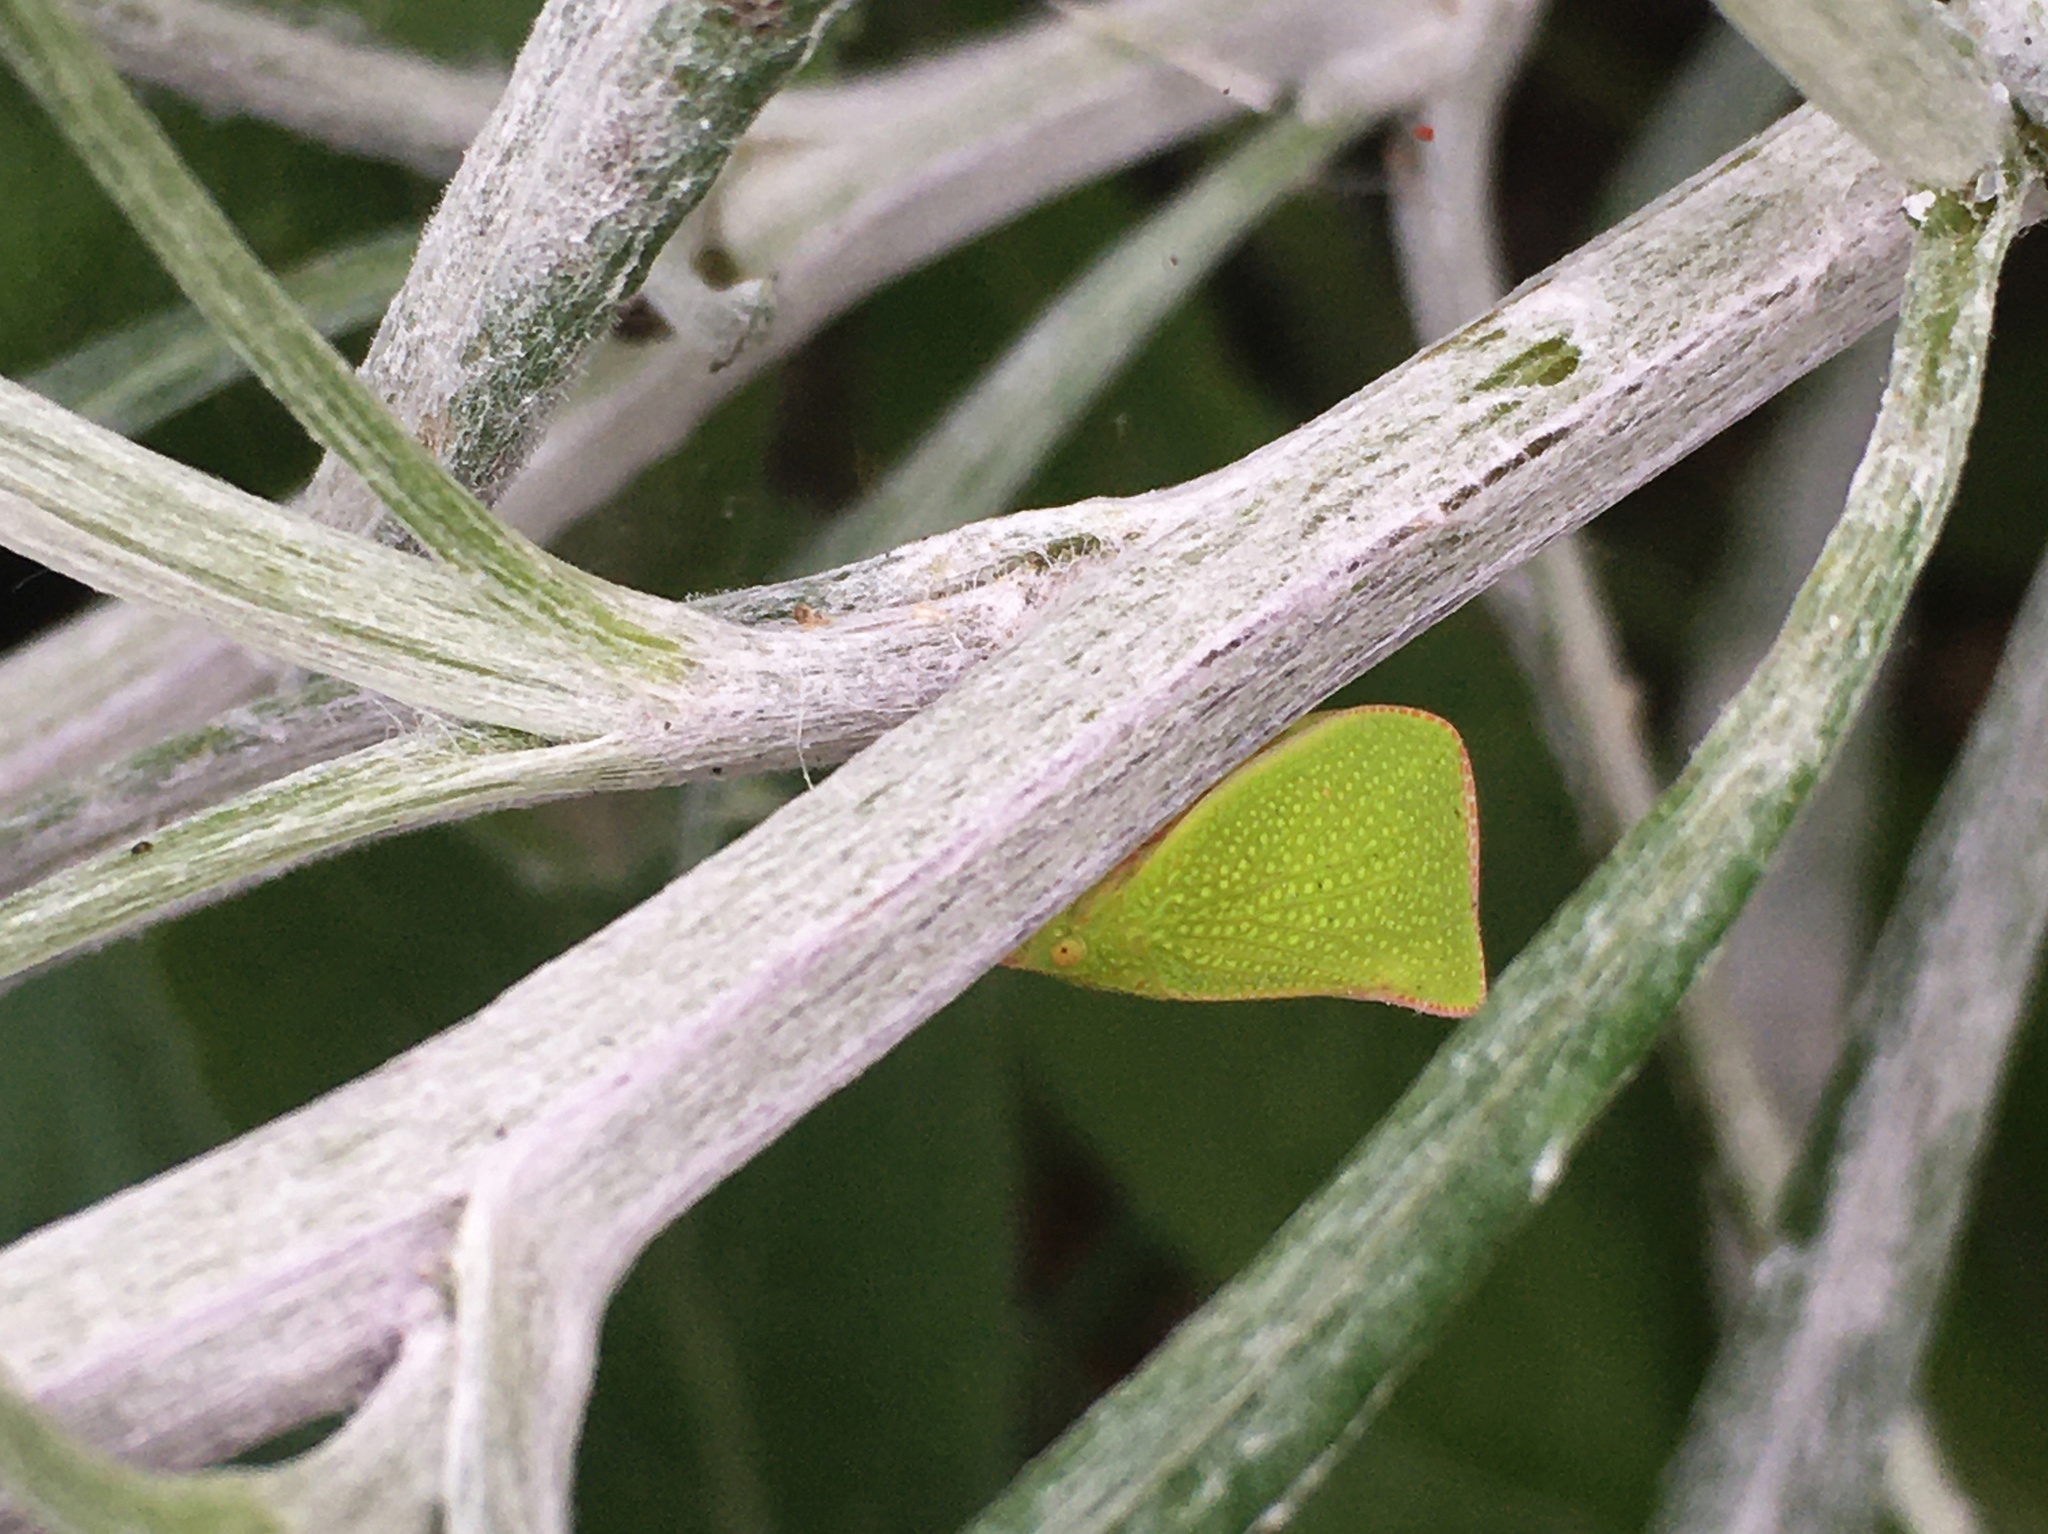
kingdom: Animalia
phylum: Arthropoda
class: Insecta
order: Hemiptera
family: Flatidae
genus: Siphanta
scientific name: Siphanta acuta
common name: Torpedo bug
